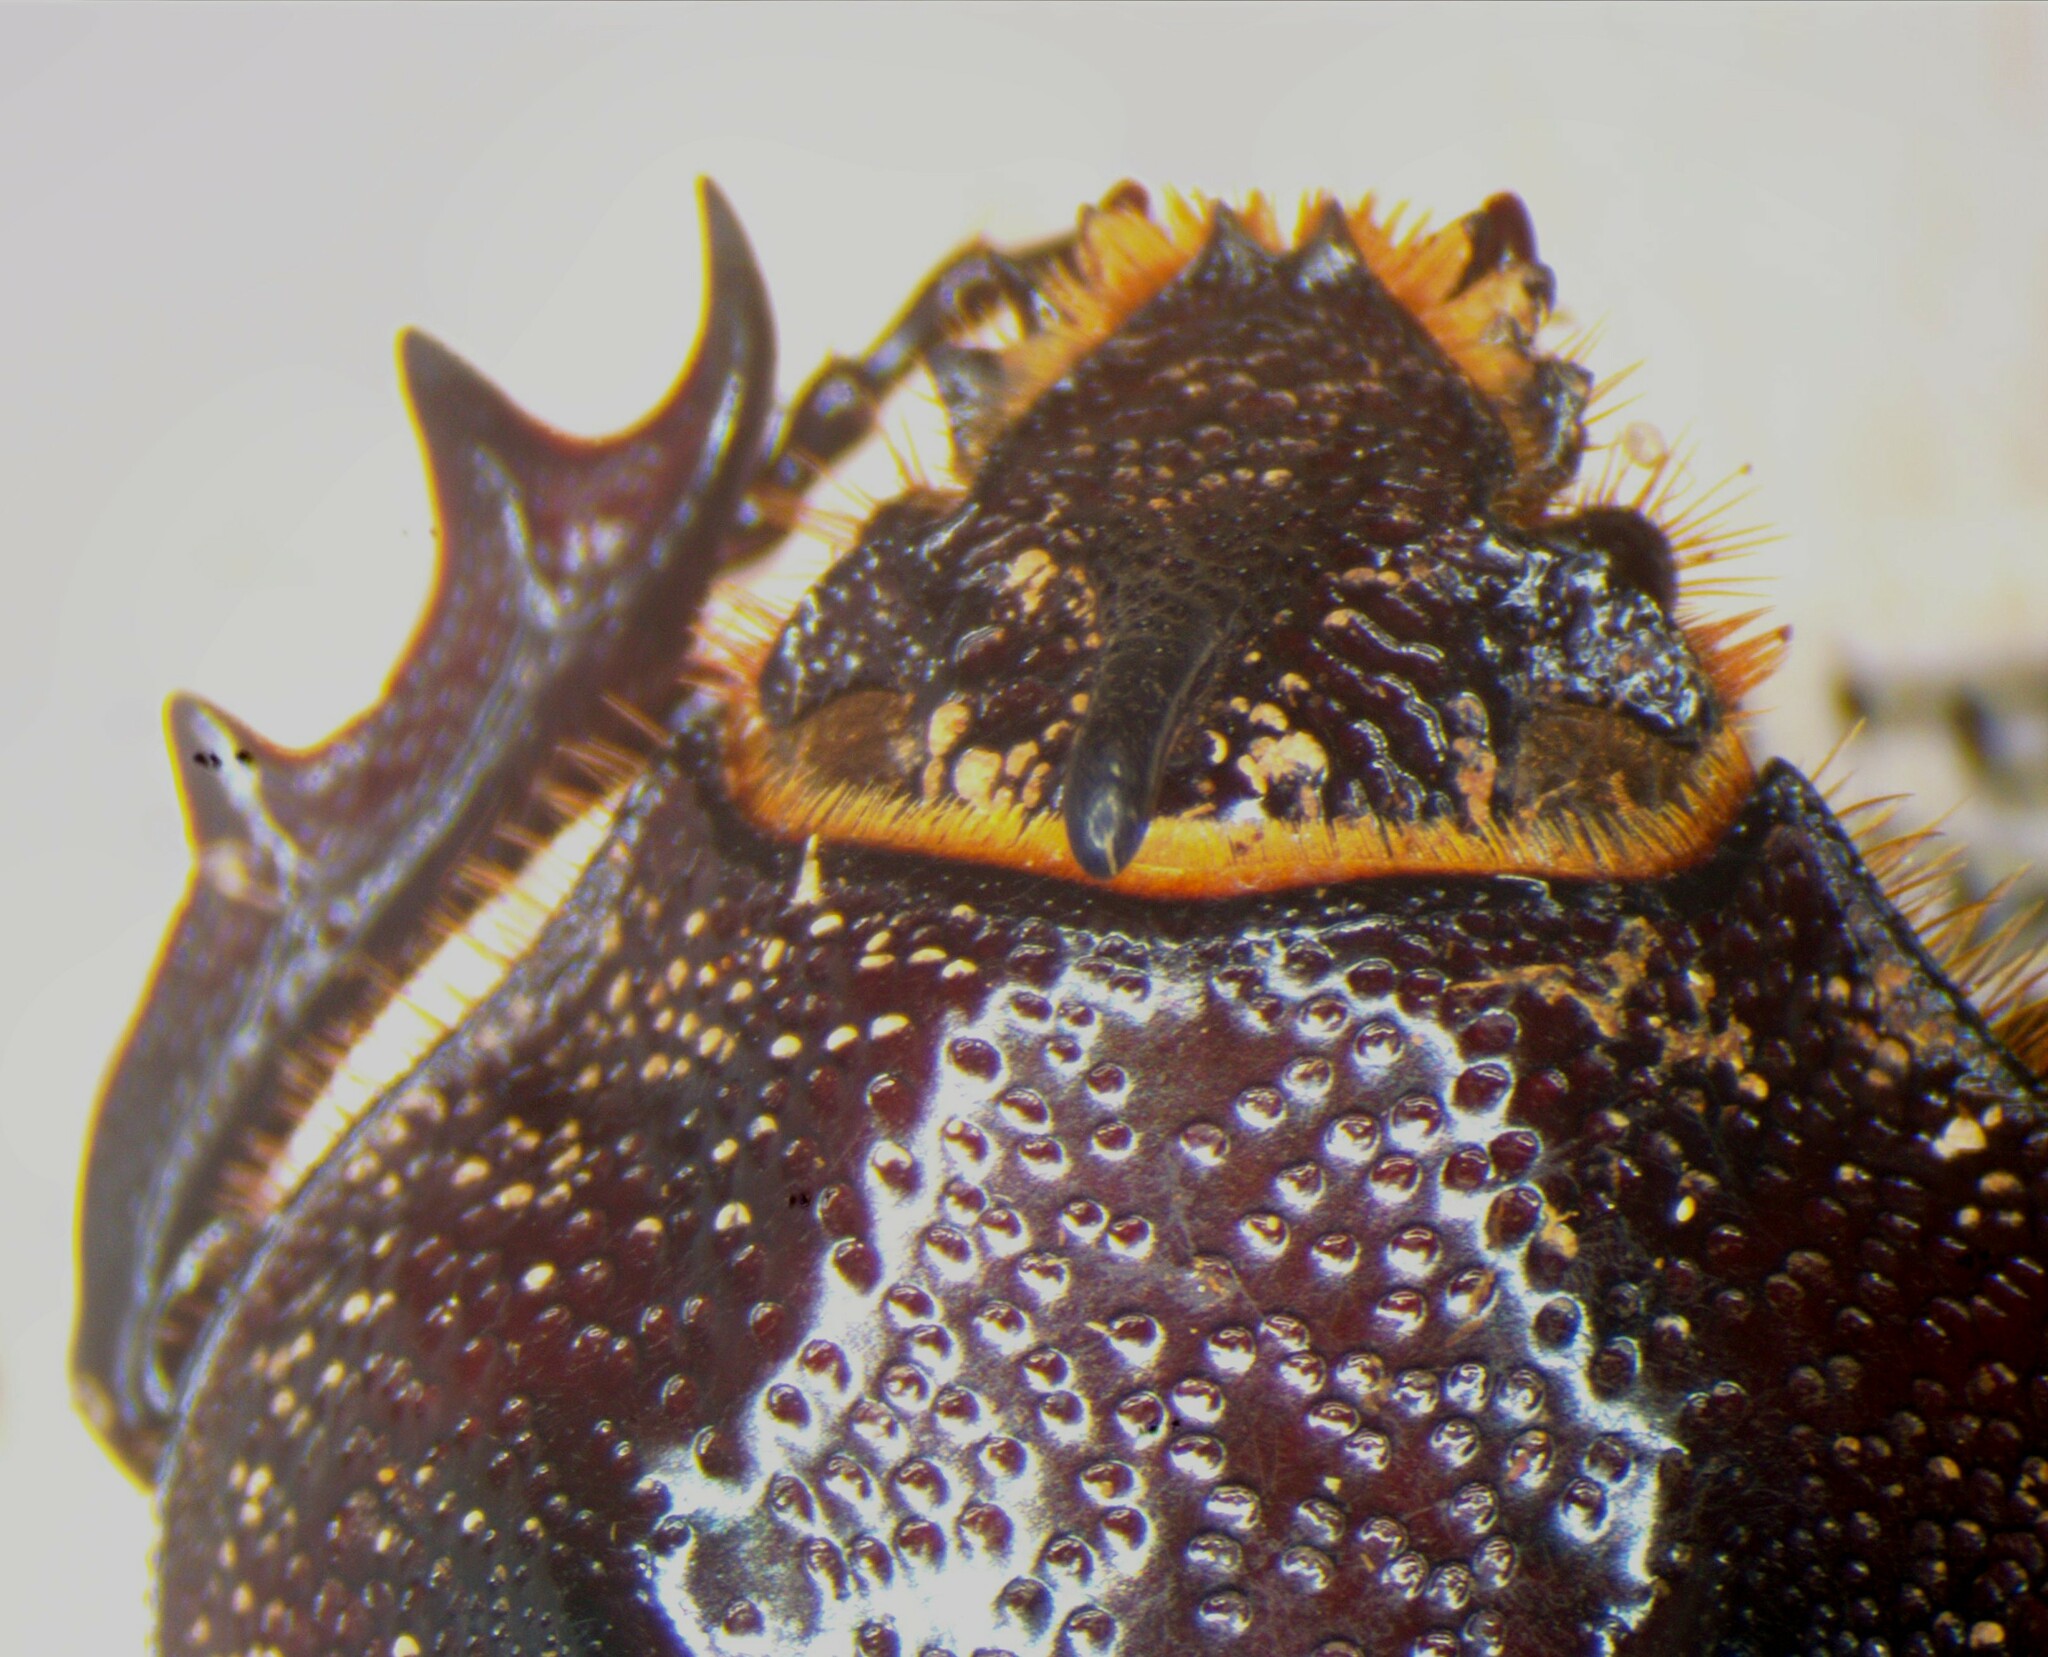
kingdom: Animalia
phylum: Arthropoda
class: Insecta
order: Coleoptera
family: Scarabaeidae
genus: Coelosis
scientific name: Coelosis hippocrates
